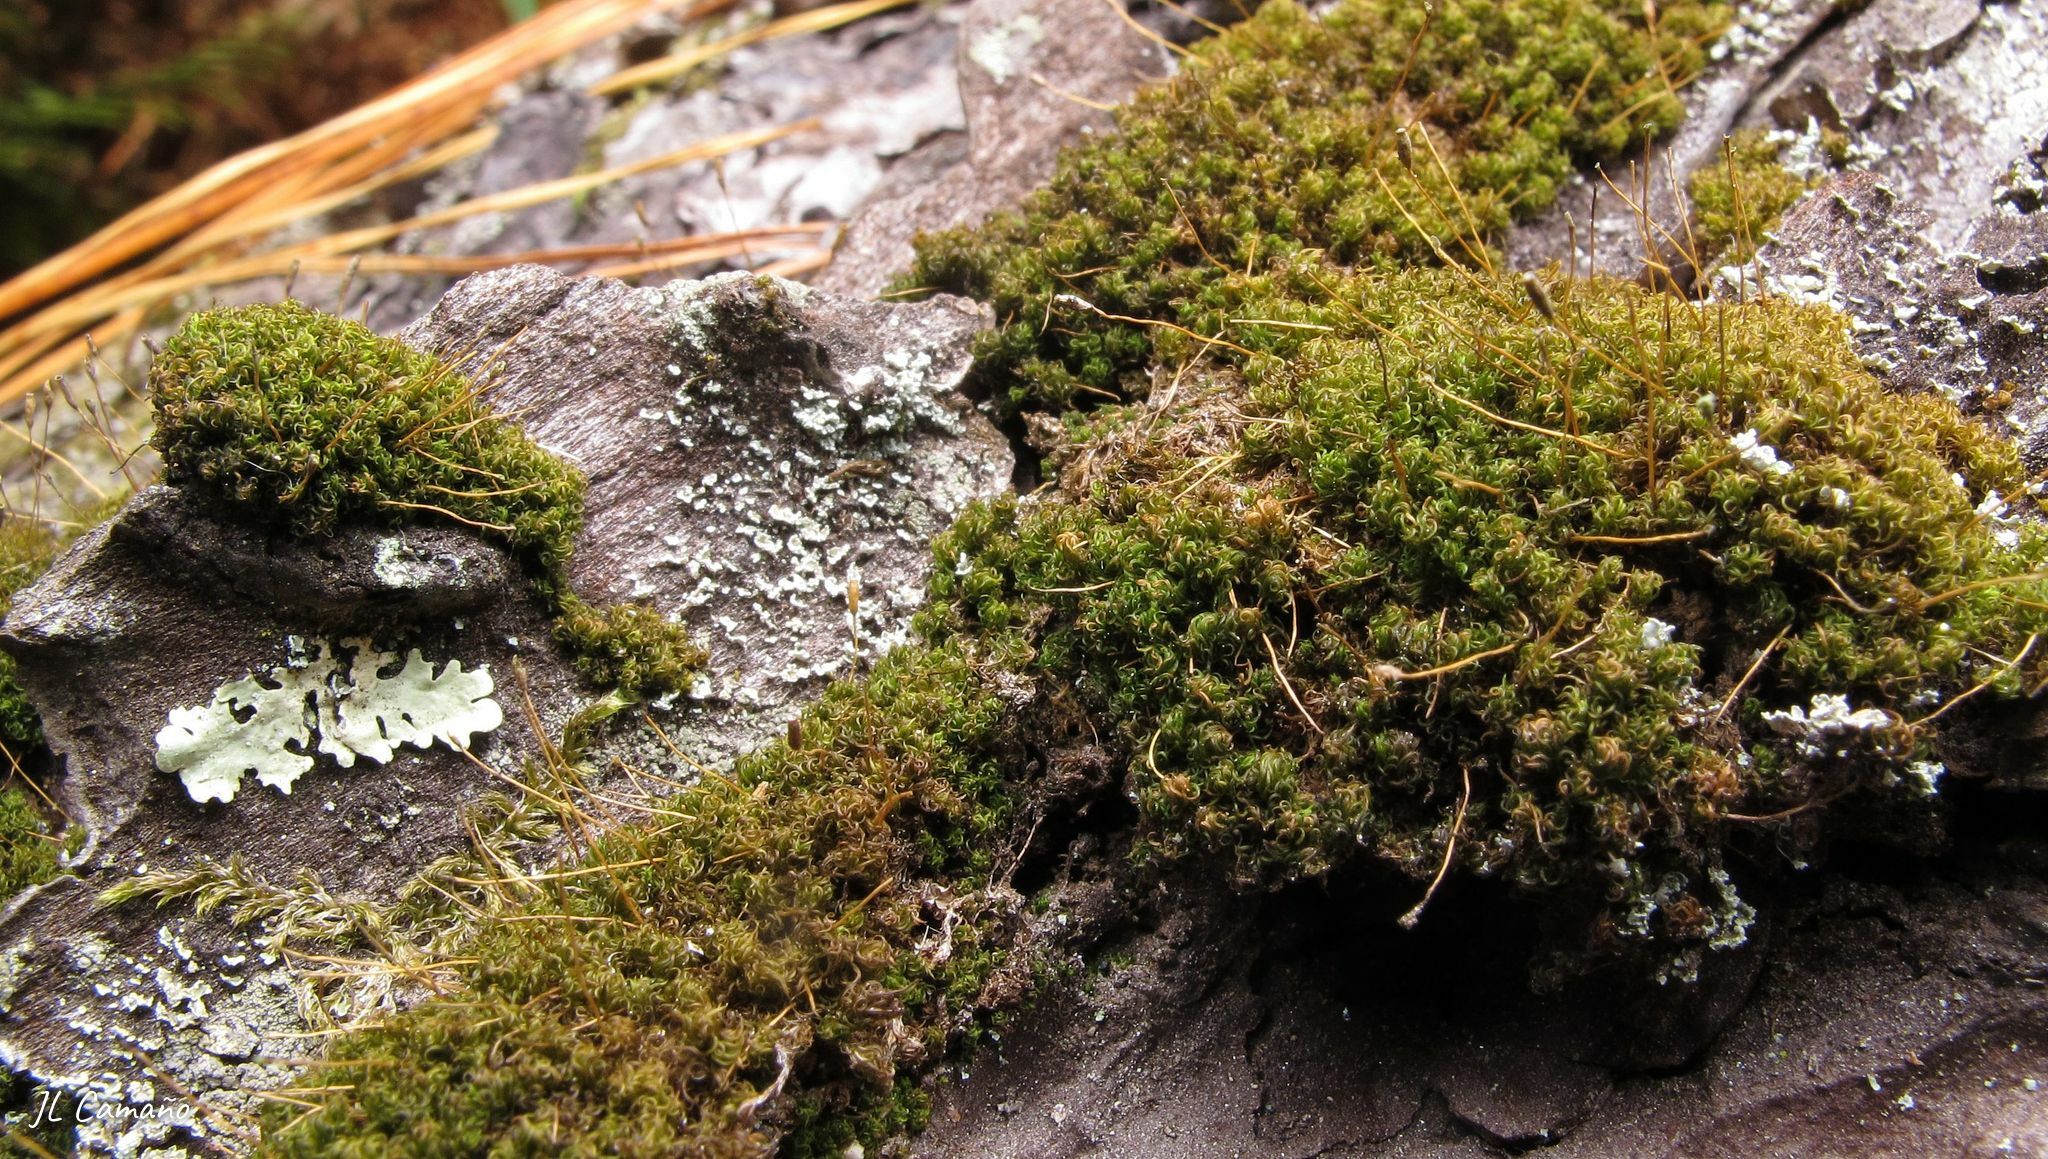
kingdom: Plantae
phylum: Bryophyta
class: Bryopsida
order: Dicranales
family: Rhabdoweisiaceae
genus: Dicranoweisia
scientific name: Dicranoweisia cirrata
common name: Common pincushion
